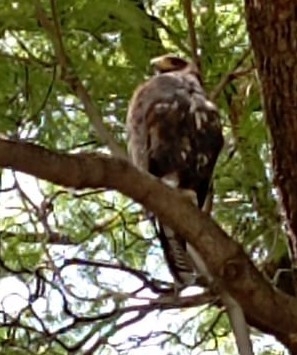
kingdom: Animalia
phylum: Chordata
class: Aves
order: Accipitriformes
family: Accipitridae
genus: Parabuteo
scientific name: Parabuteo unicinctus
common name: Harris's hawk
